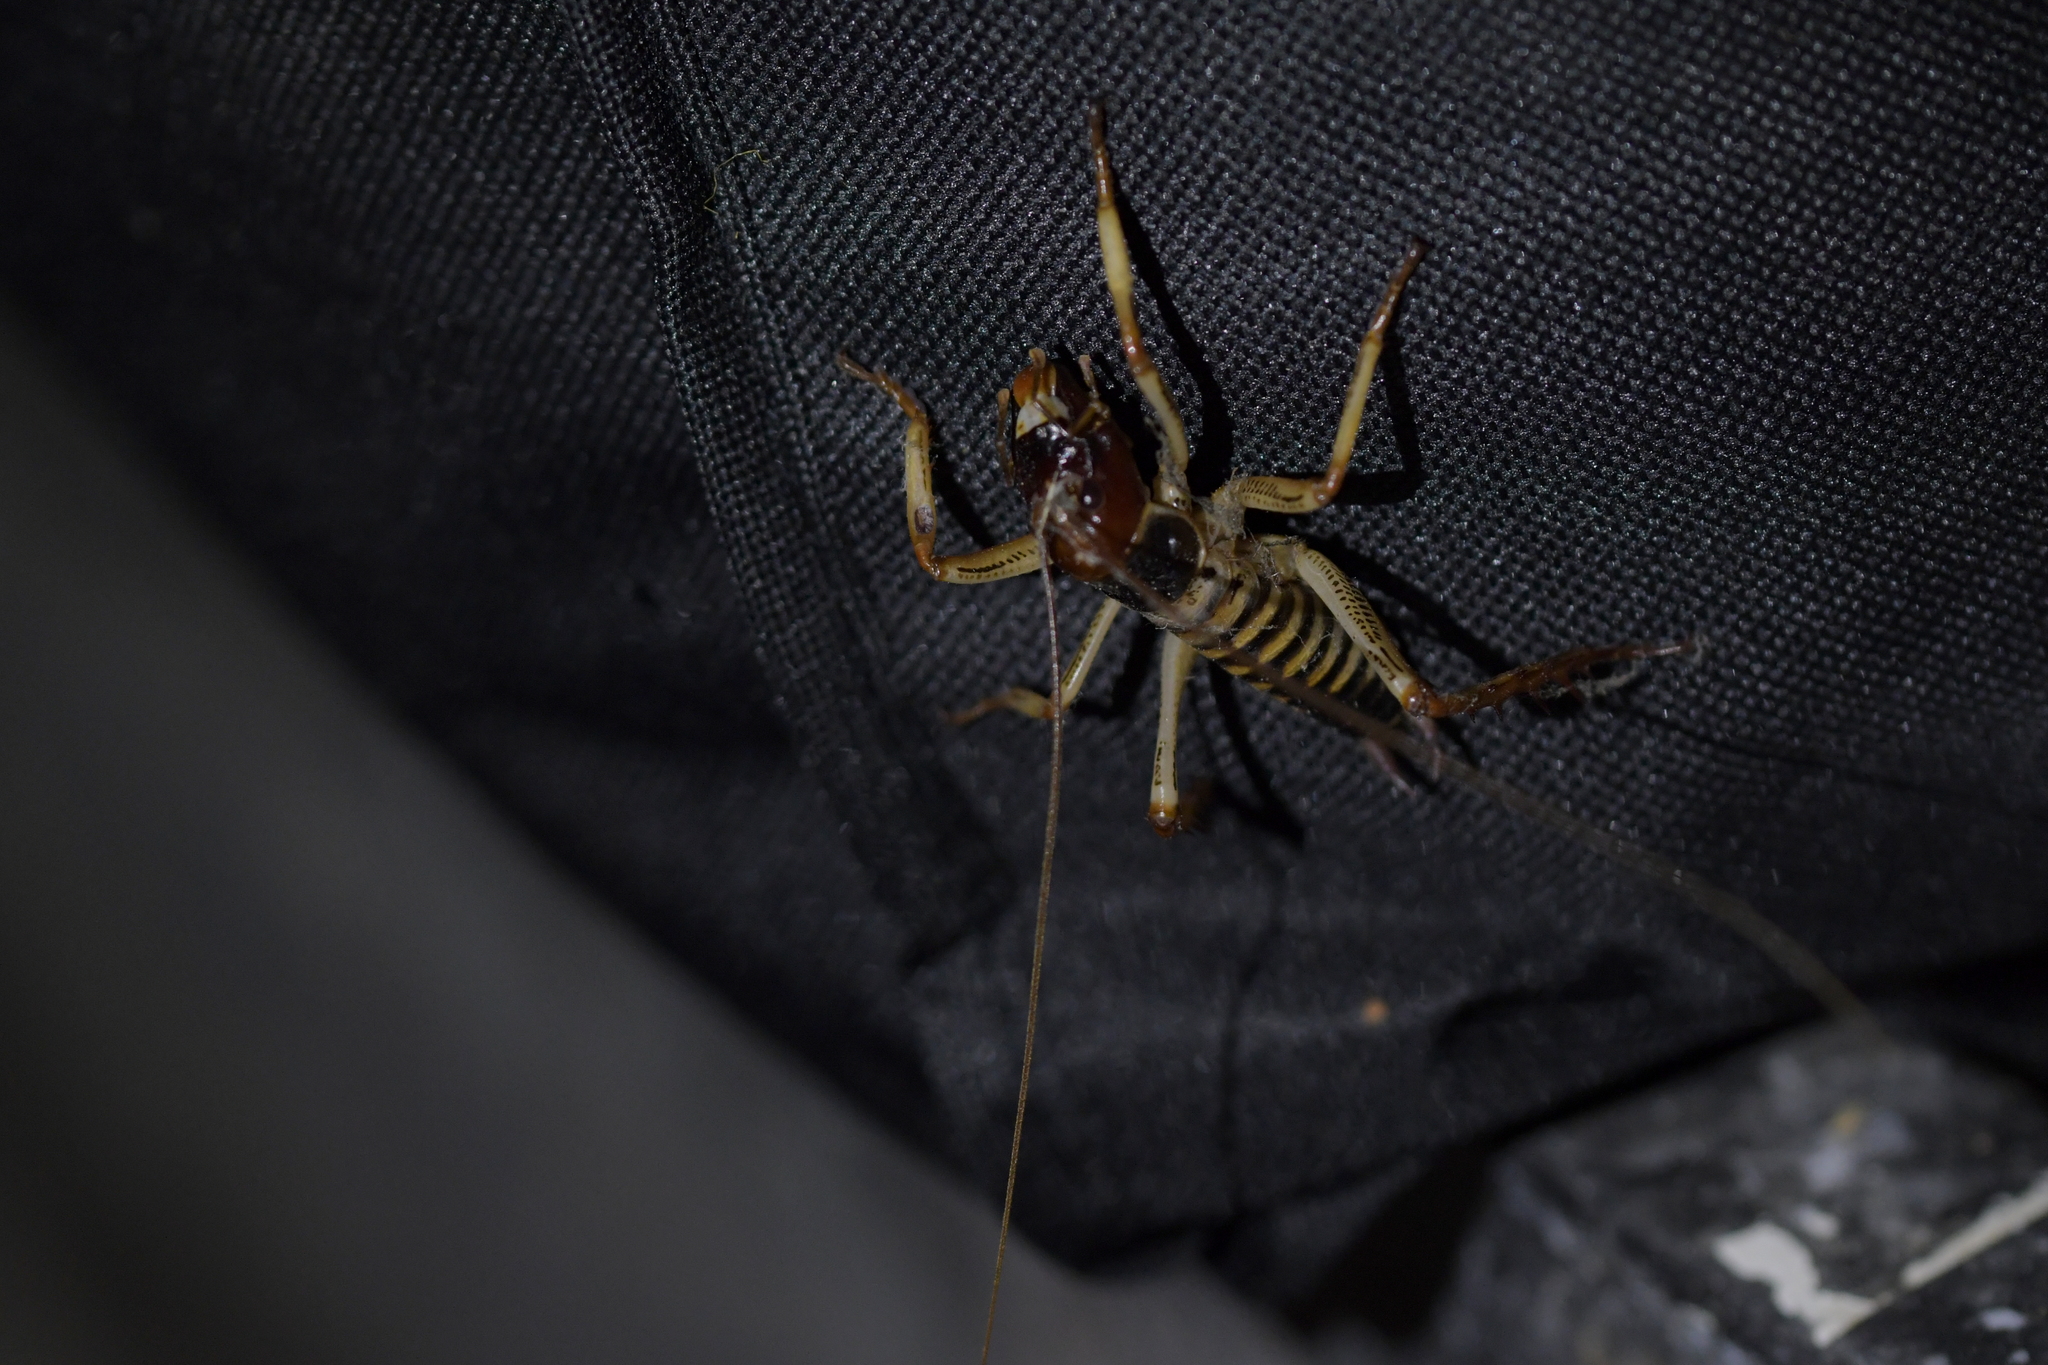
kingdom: Animalia
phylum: Arthropoda
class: Insecta
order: Orthoptera
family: Anostostomatidae
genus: Hemideina
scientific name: Hemideina crassidens
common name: Wellington tree weta
